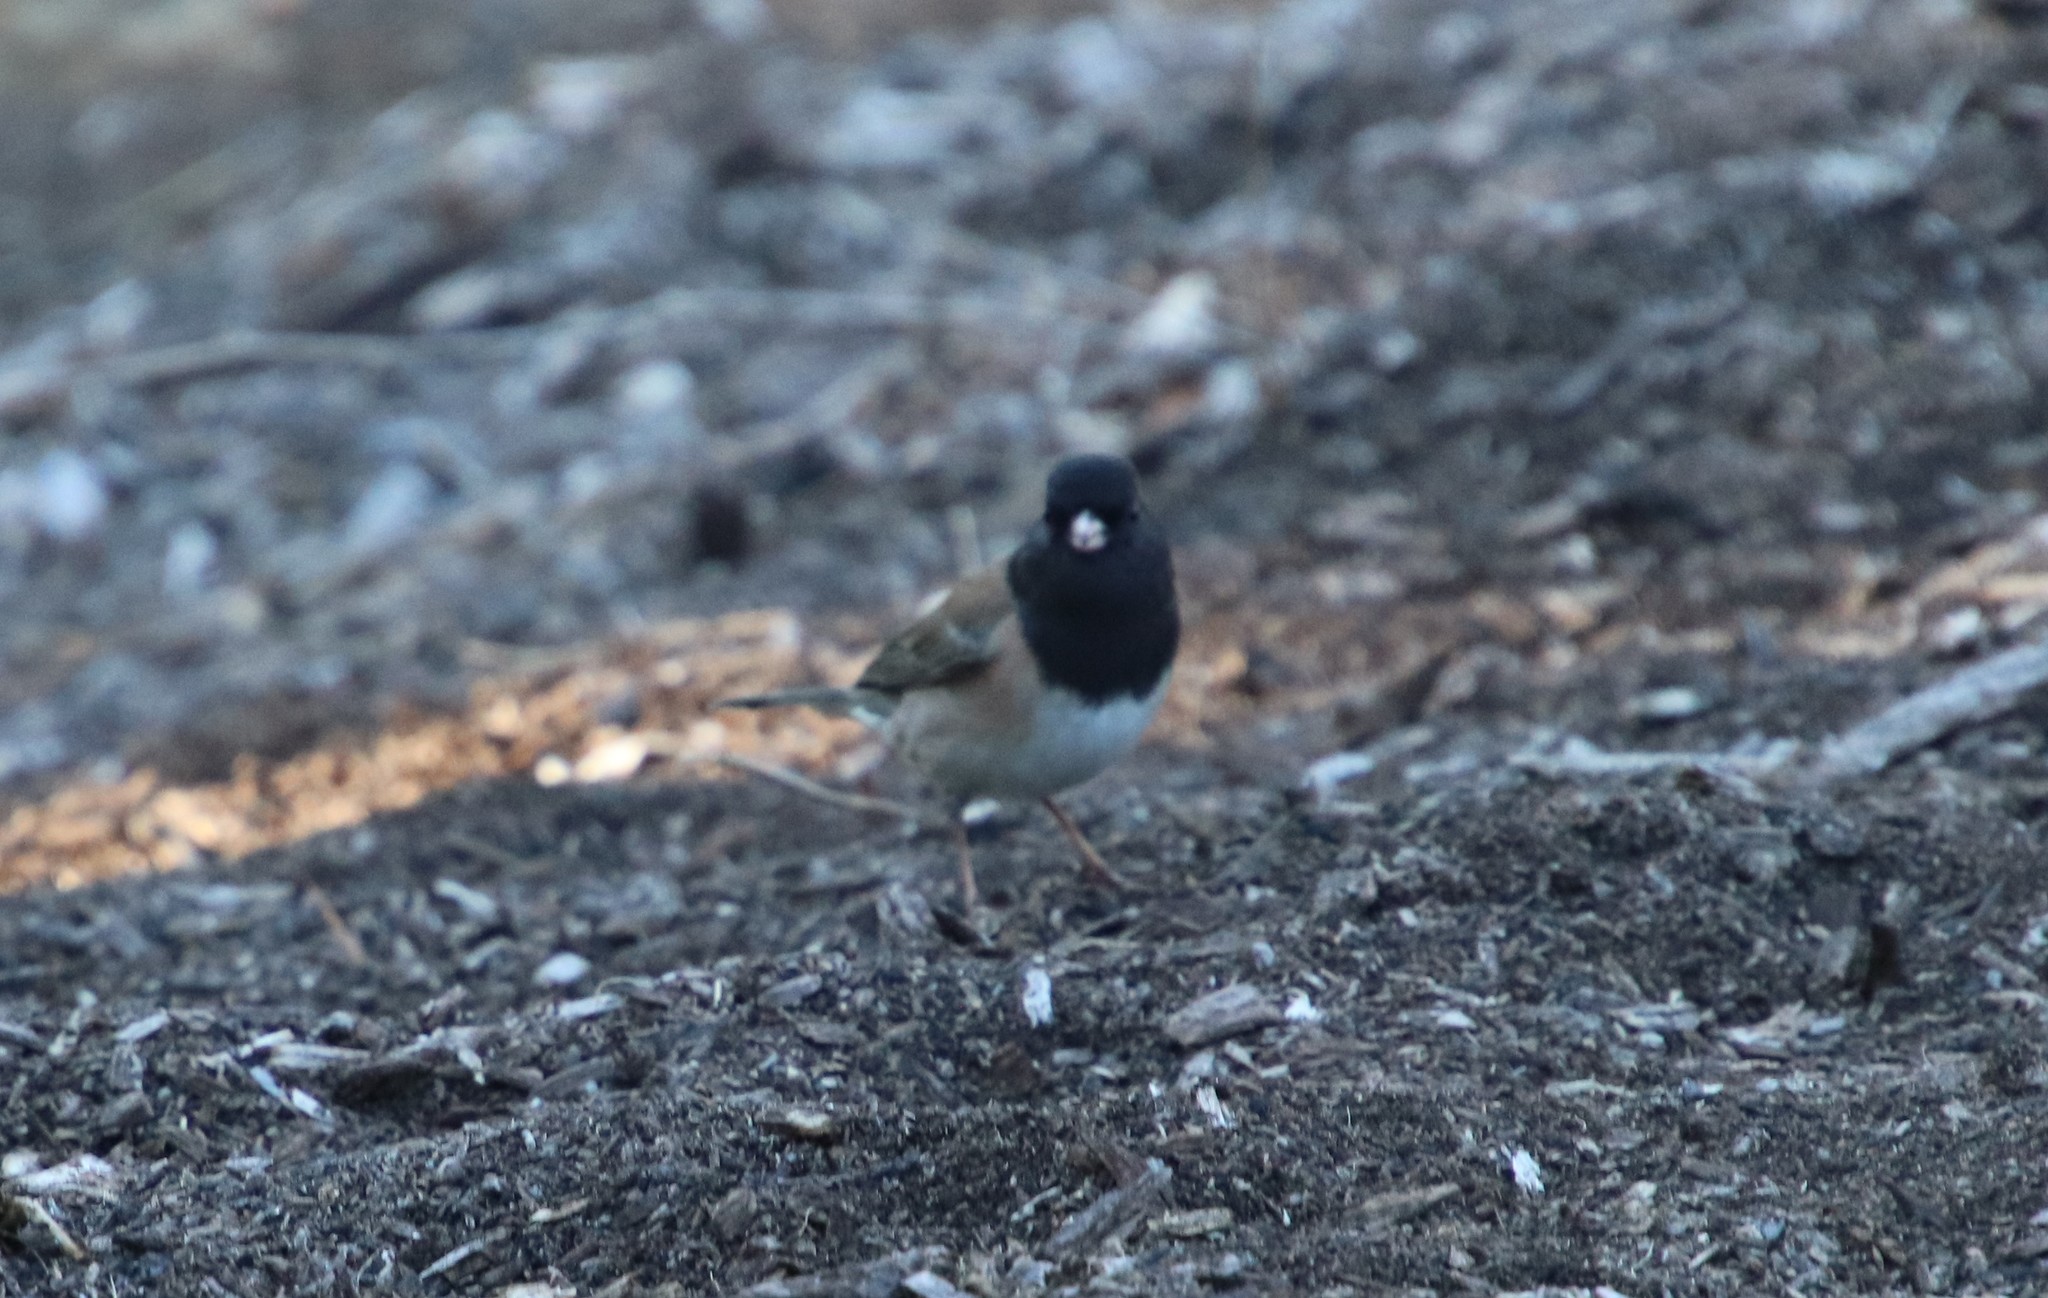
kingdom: Animalia
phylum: Chordata
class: Aves
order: Passeriformes
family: Passerellidae
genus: Junco
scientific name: Junco hyemalis
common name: Dark-eyed junco
